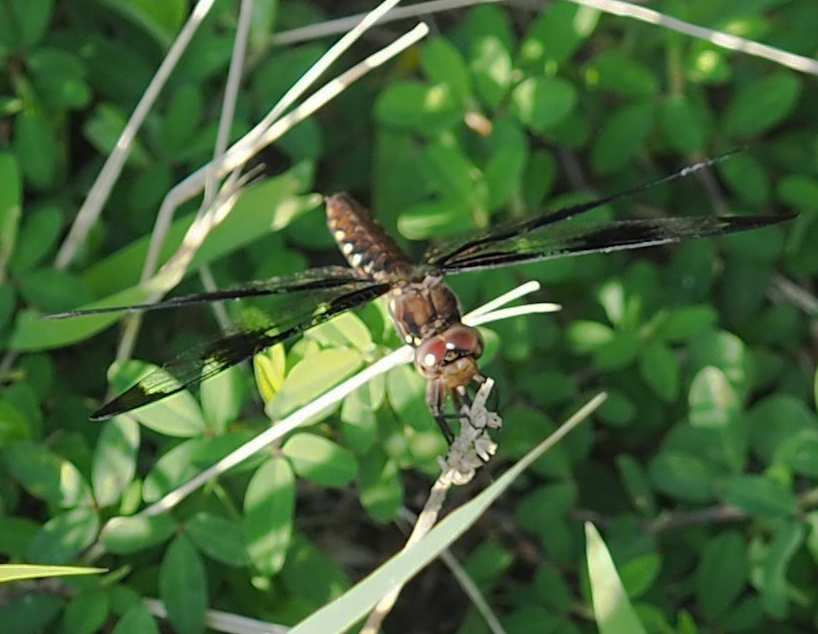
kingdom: Animalia
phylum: Arthropoda
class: Insecta
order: Odonata
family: Libellulidae
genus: Plathemis
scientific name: Plathemis lydia
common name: Common whitetail
